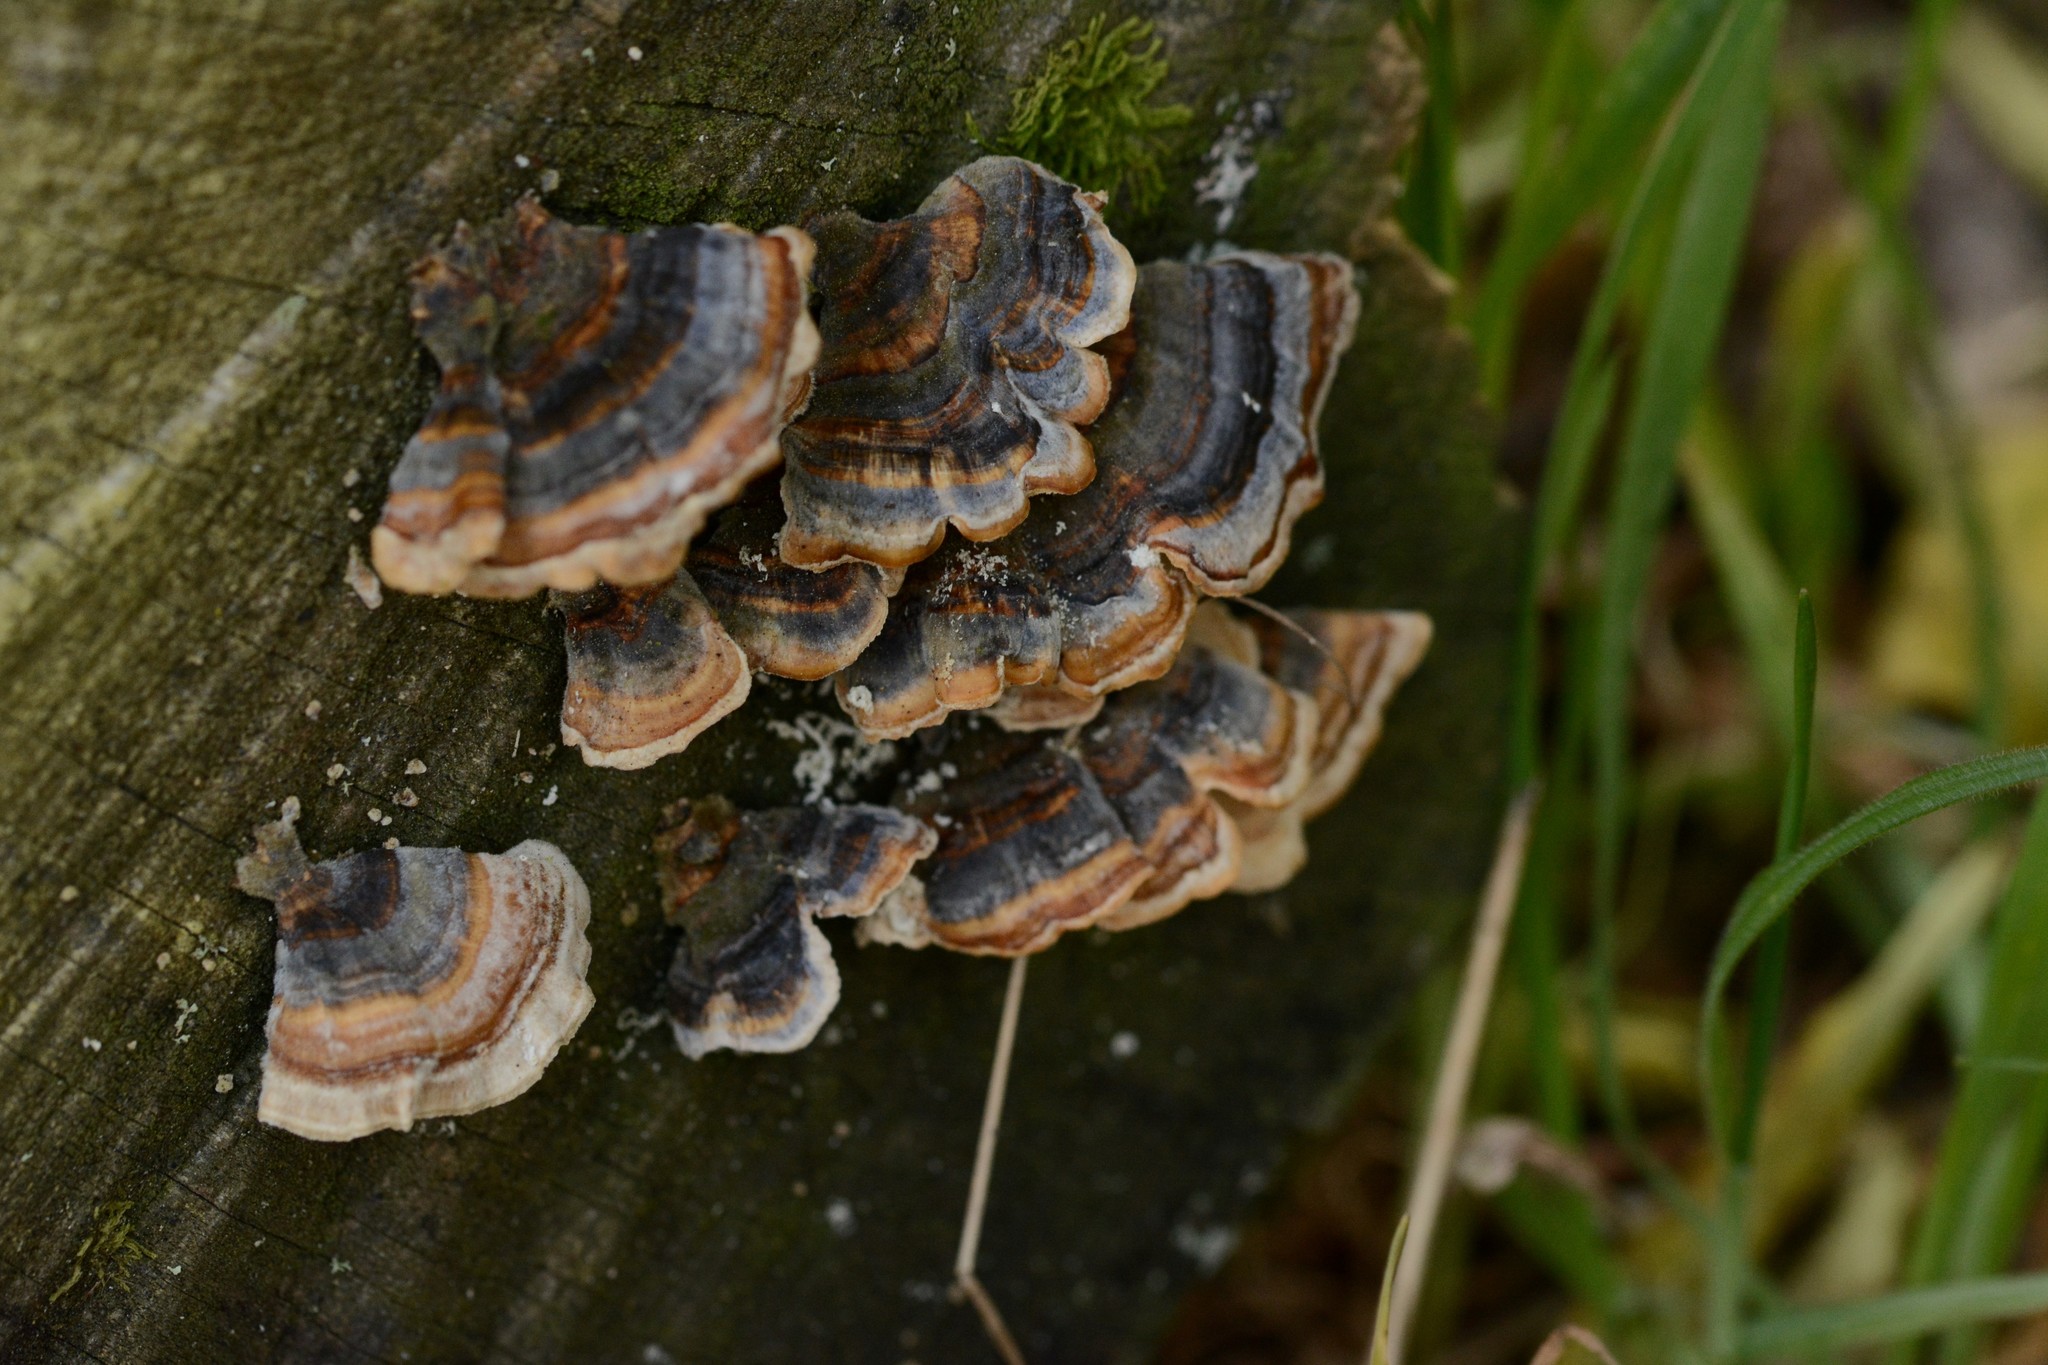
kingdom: Fungi
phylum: Basidiomycota
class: Agaricomycetes
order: Polyporales
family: Polyporaceae
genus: Trametes
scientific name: Trametes versicolor
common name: Turkeytail
